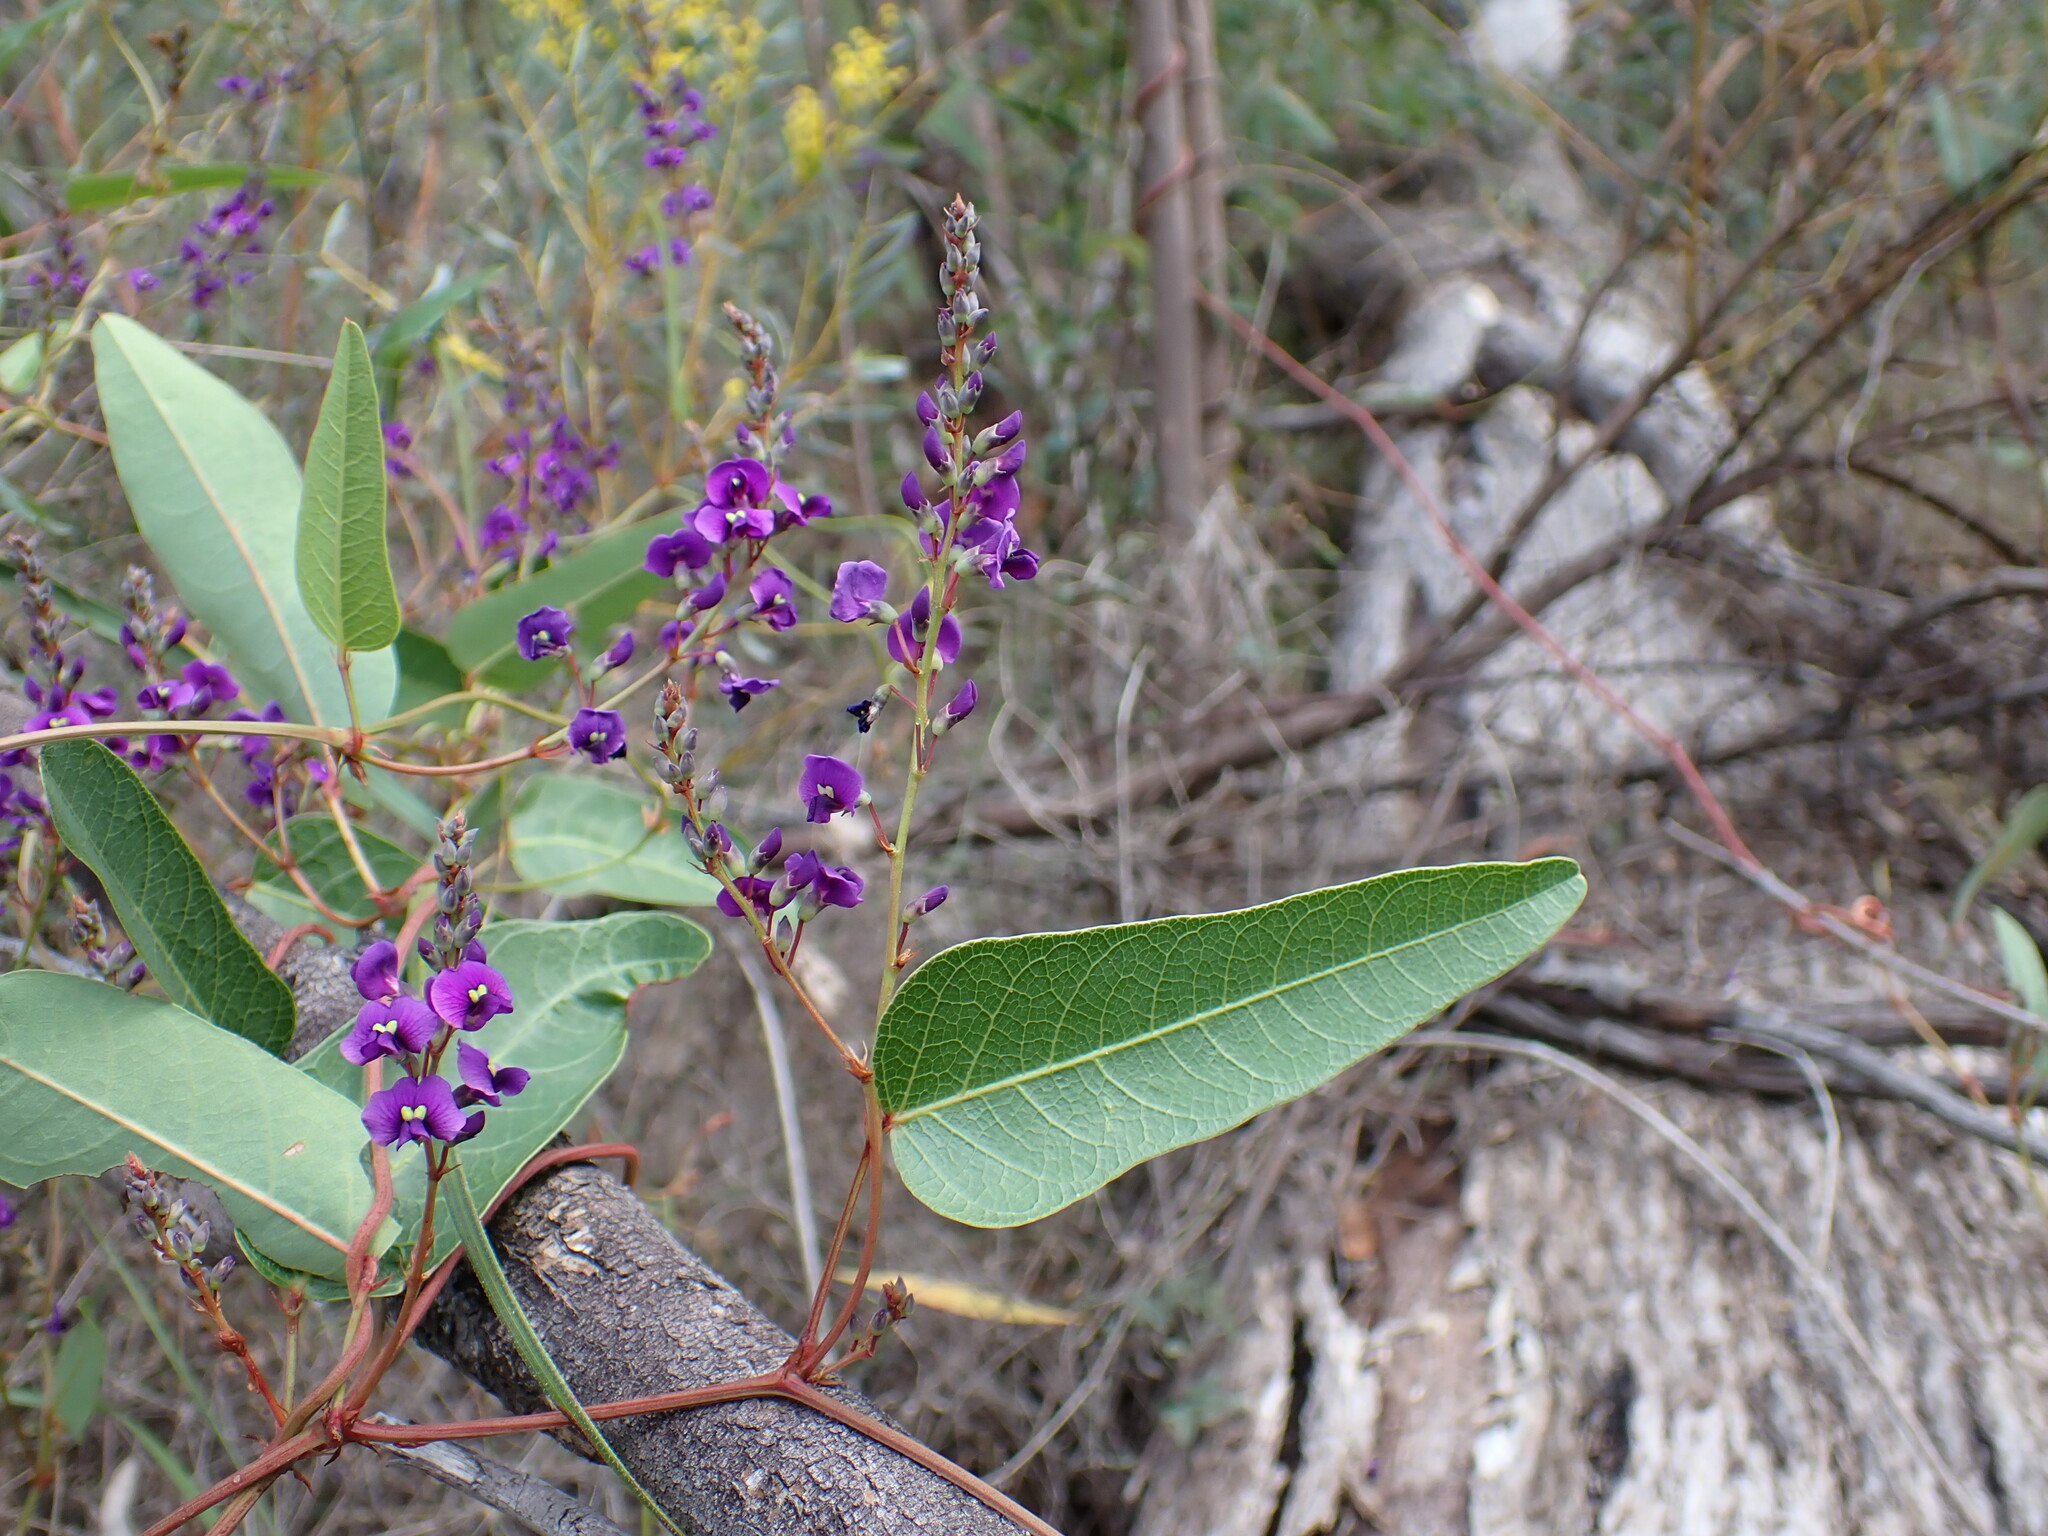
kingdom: Plantae
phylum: Tracheophyta
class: Magnoliopsida
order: Fabales
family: Fabaceae
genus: Hardenbergia
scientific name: Hardenbergia violacea
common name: Coral-pea
